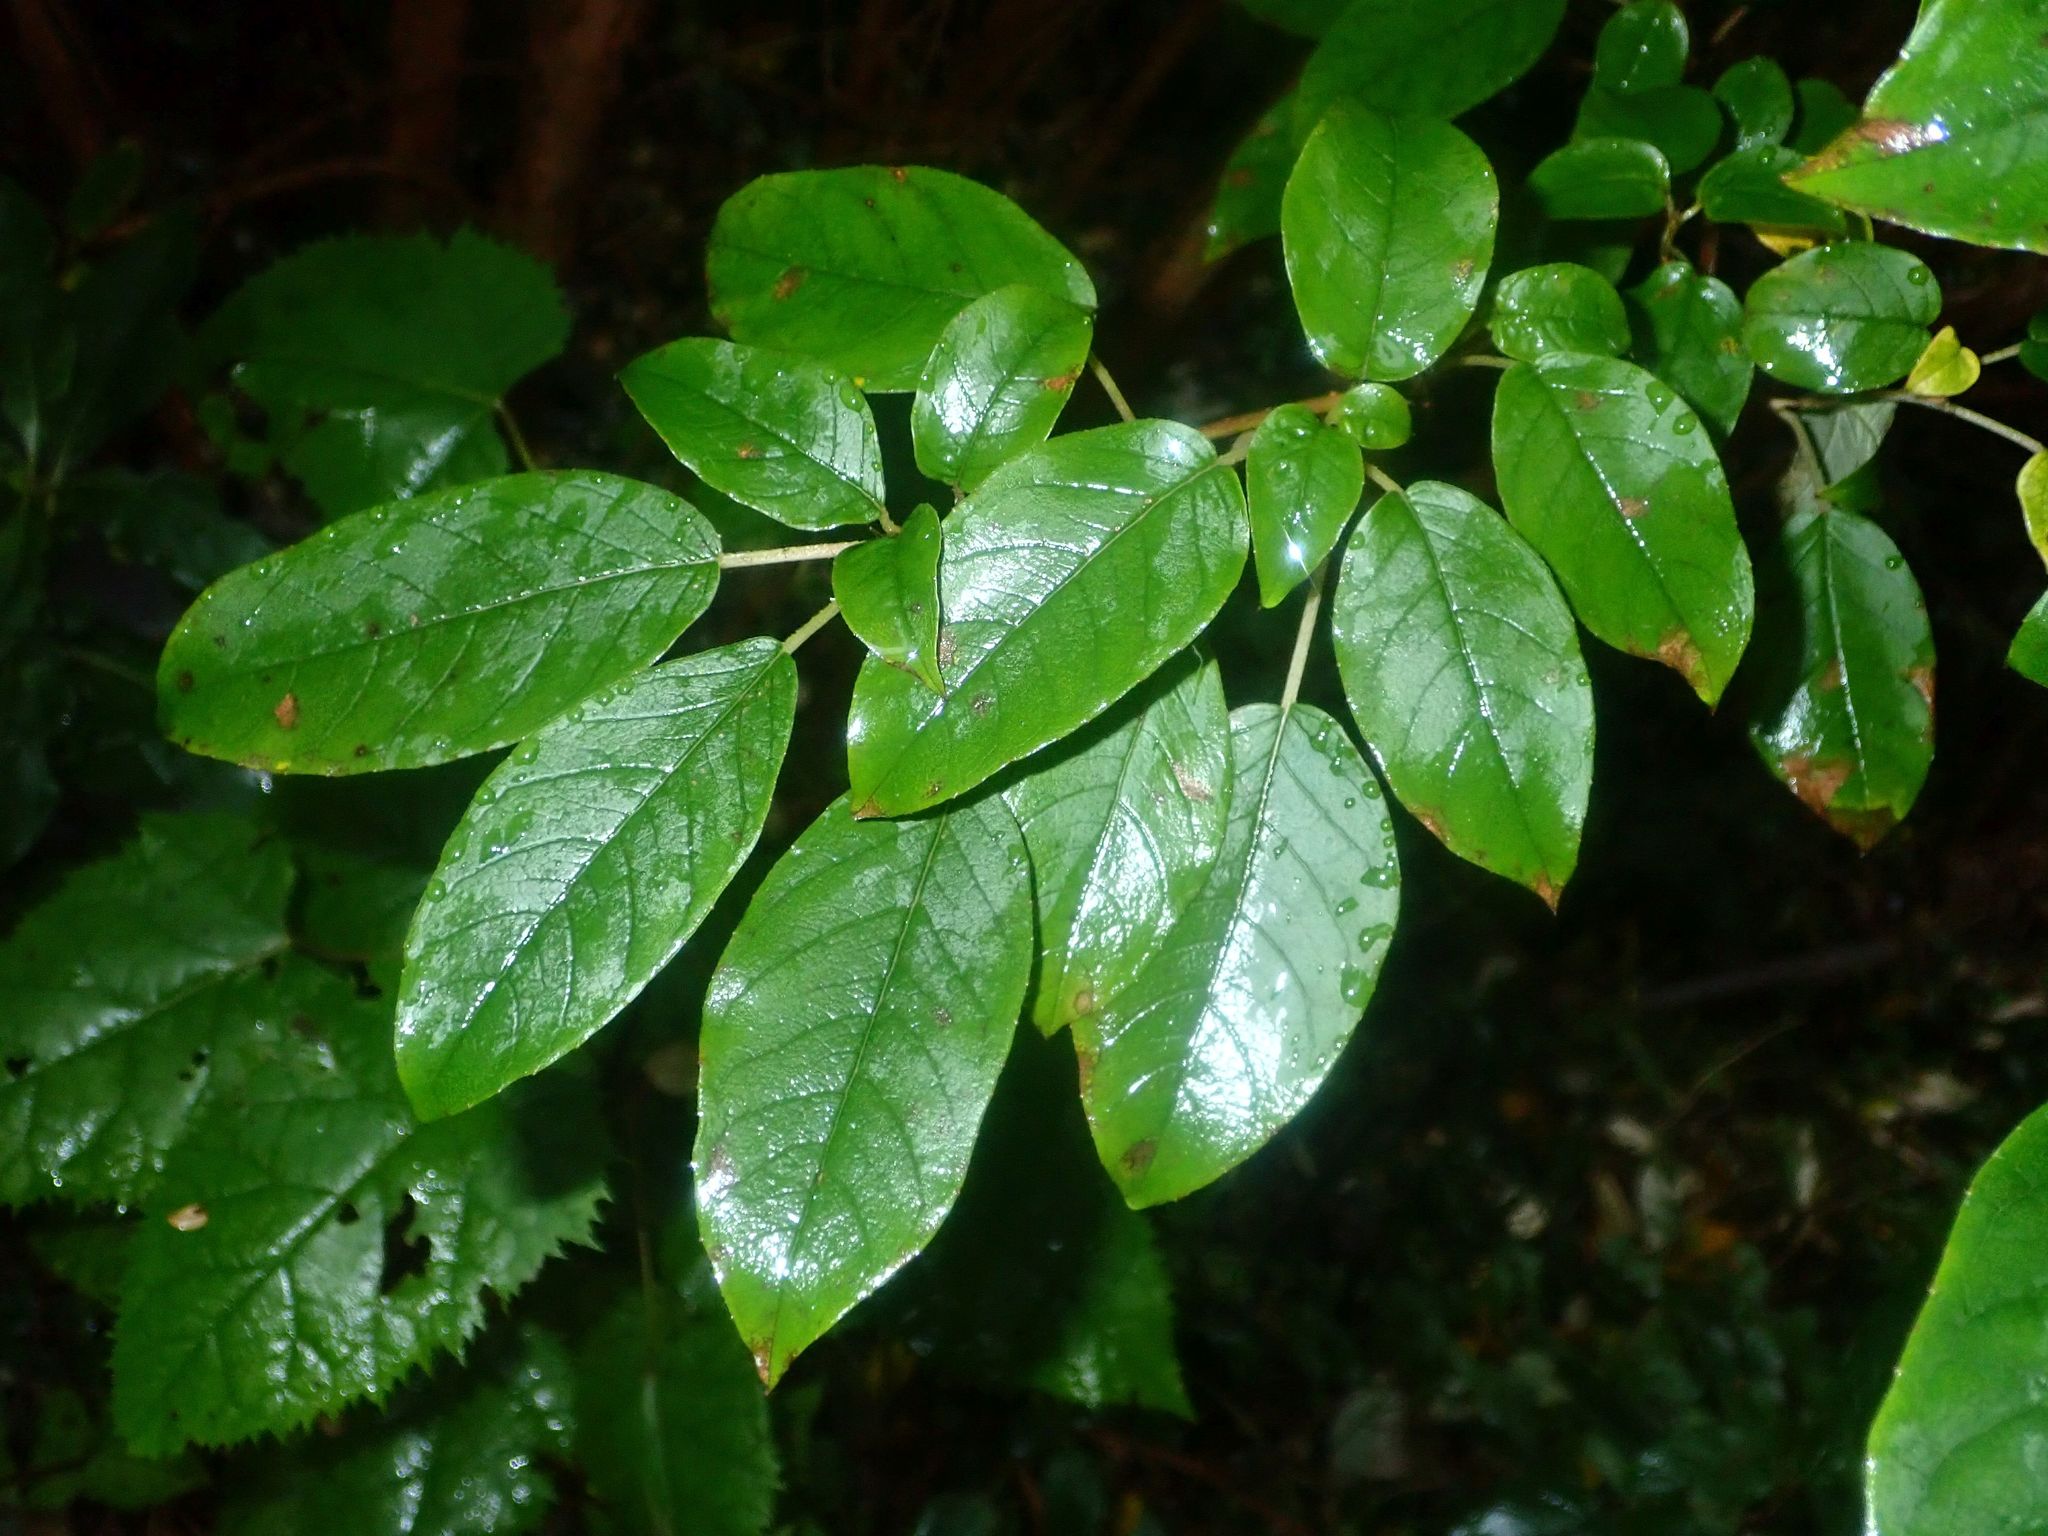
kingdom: Plantae
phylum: Tracheophyta
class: Magnoliopsida
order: Myrtales
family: Onagraceae
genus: Fuchsia
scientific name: Fuchsia excorticata
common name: Tree fuchsia
